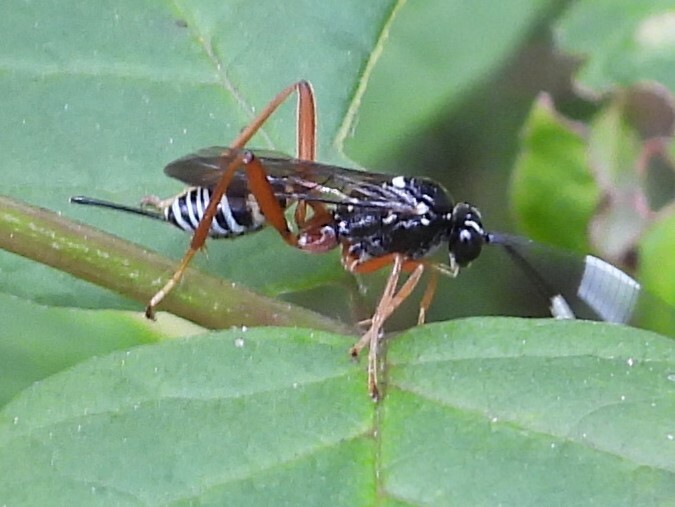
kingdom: Animalia
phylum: Arthropoda
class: Insecta
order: Hymenoptera
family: Ichneumonidae
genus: Baryceros
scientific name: Baryceros audax
